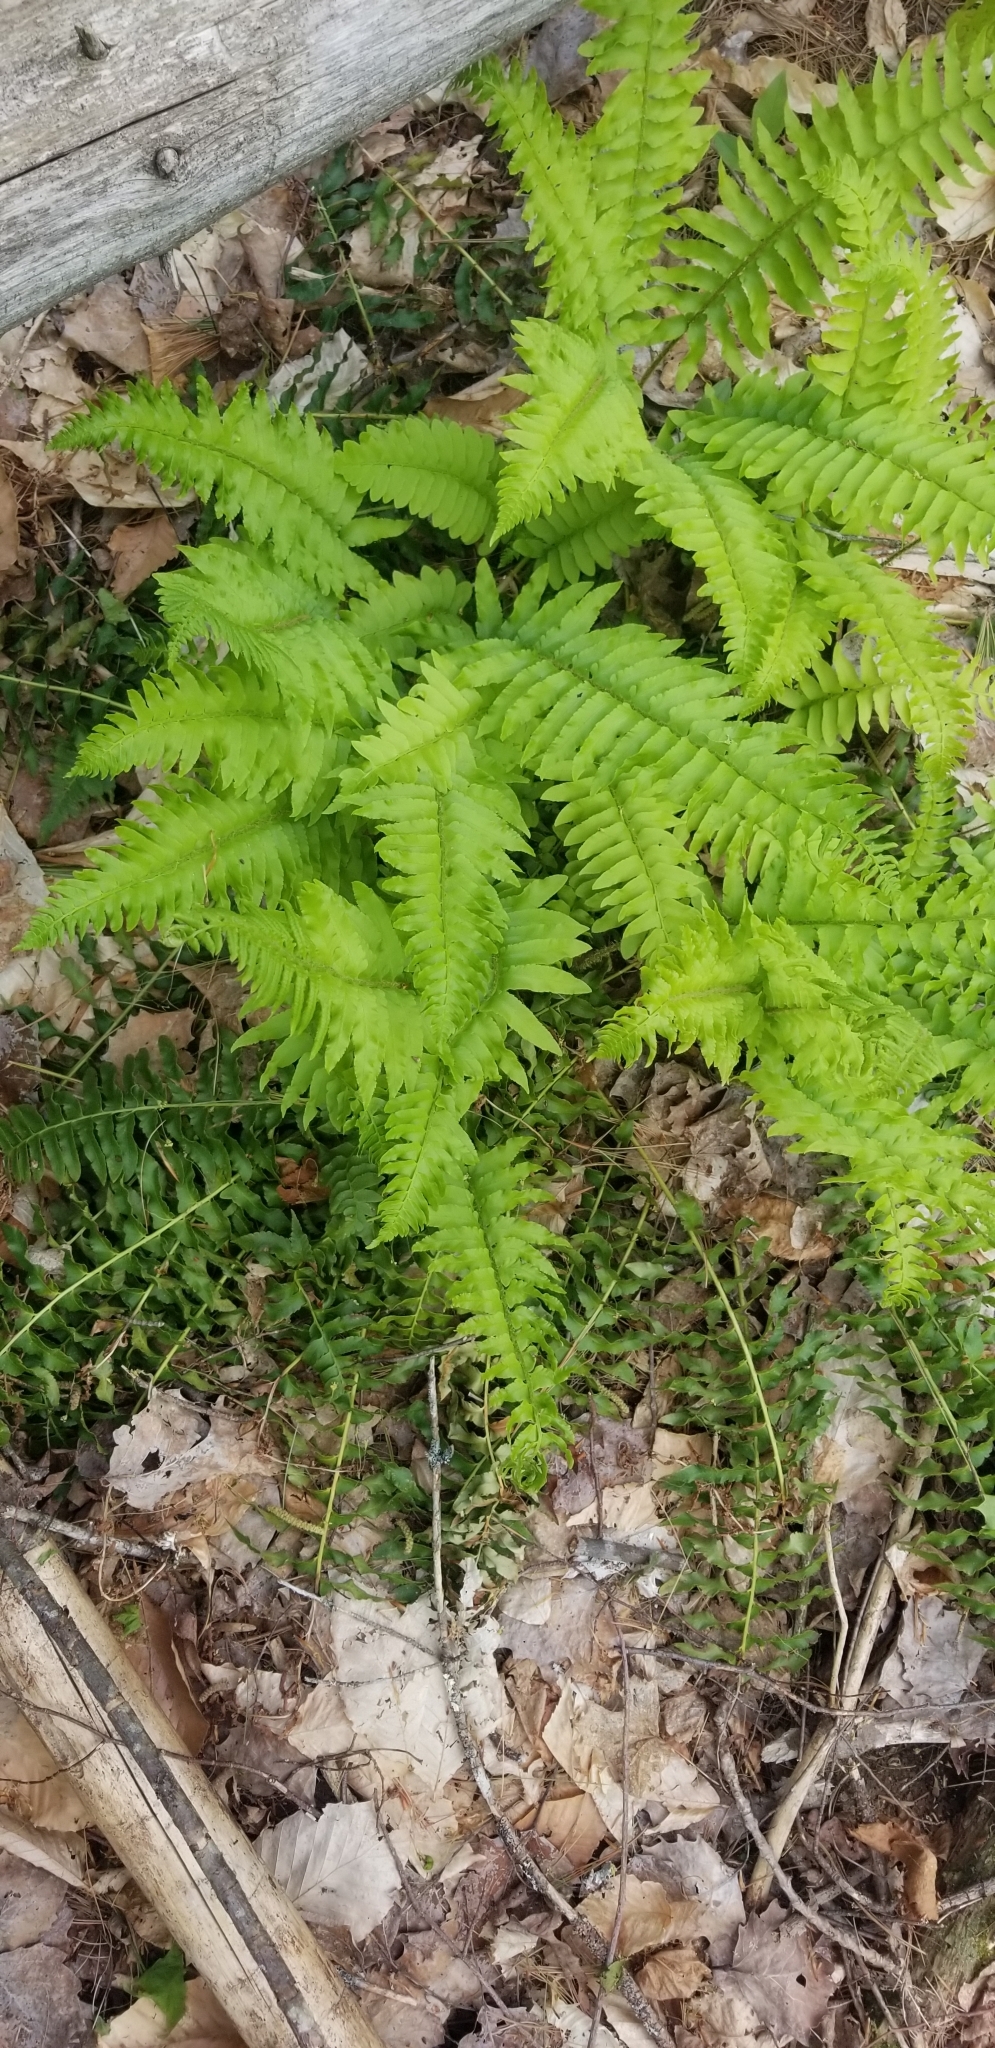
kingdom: Plantae
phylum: Tracheophyta
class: Polypodiopsida
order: Polypodiales
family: Dryopteridaceae
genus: Polystichum
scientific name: Polystichum acrostichoides
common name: Christmas fern
